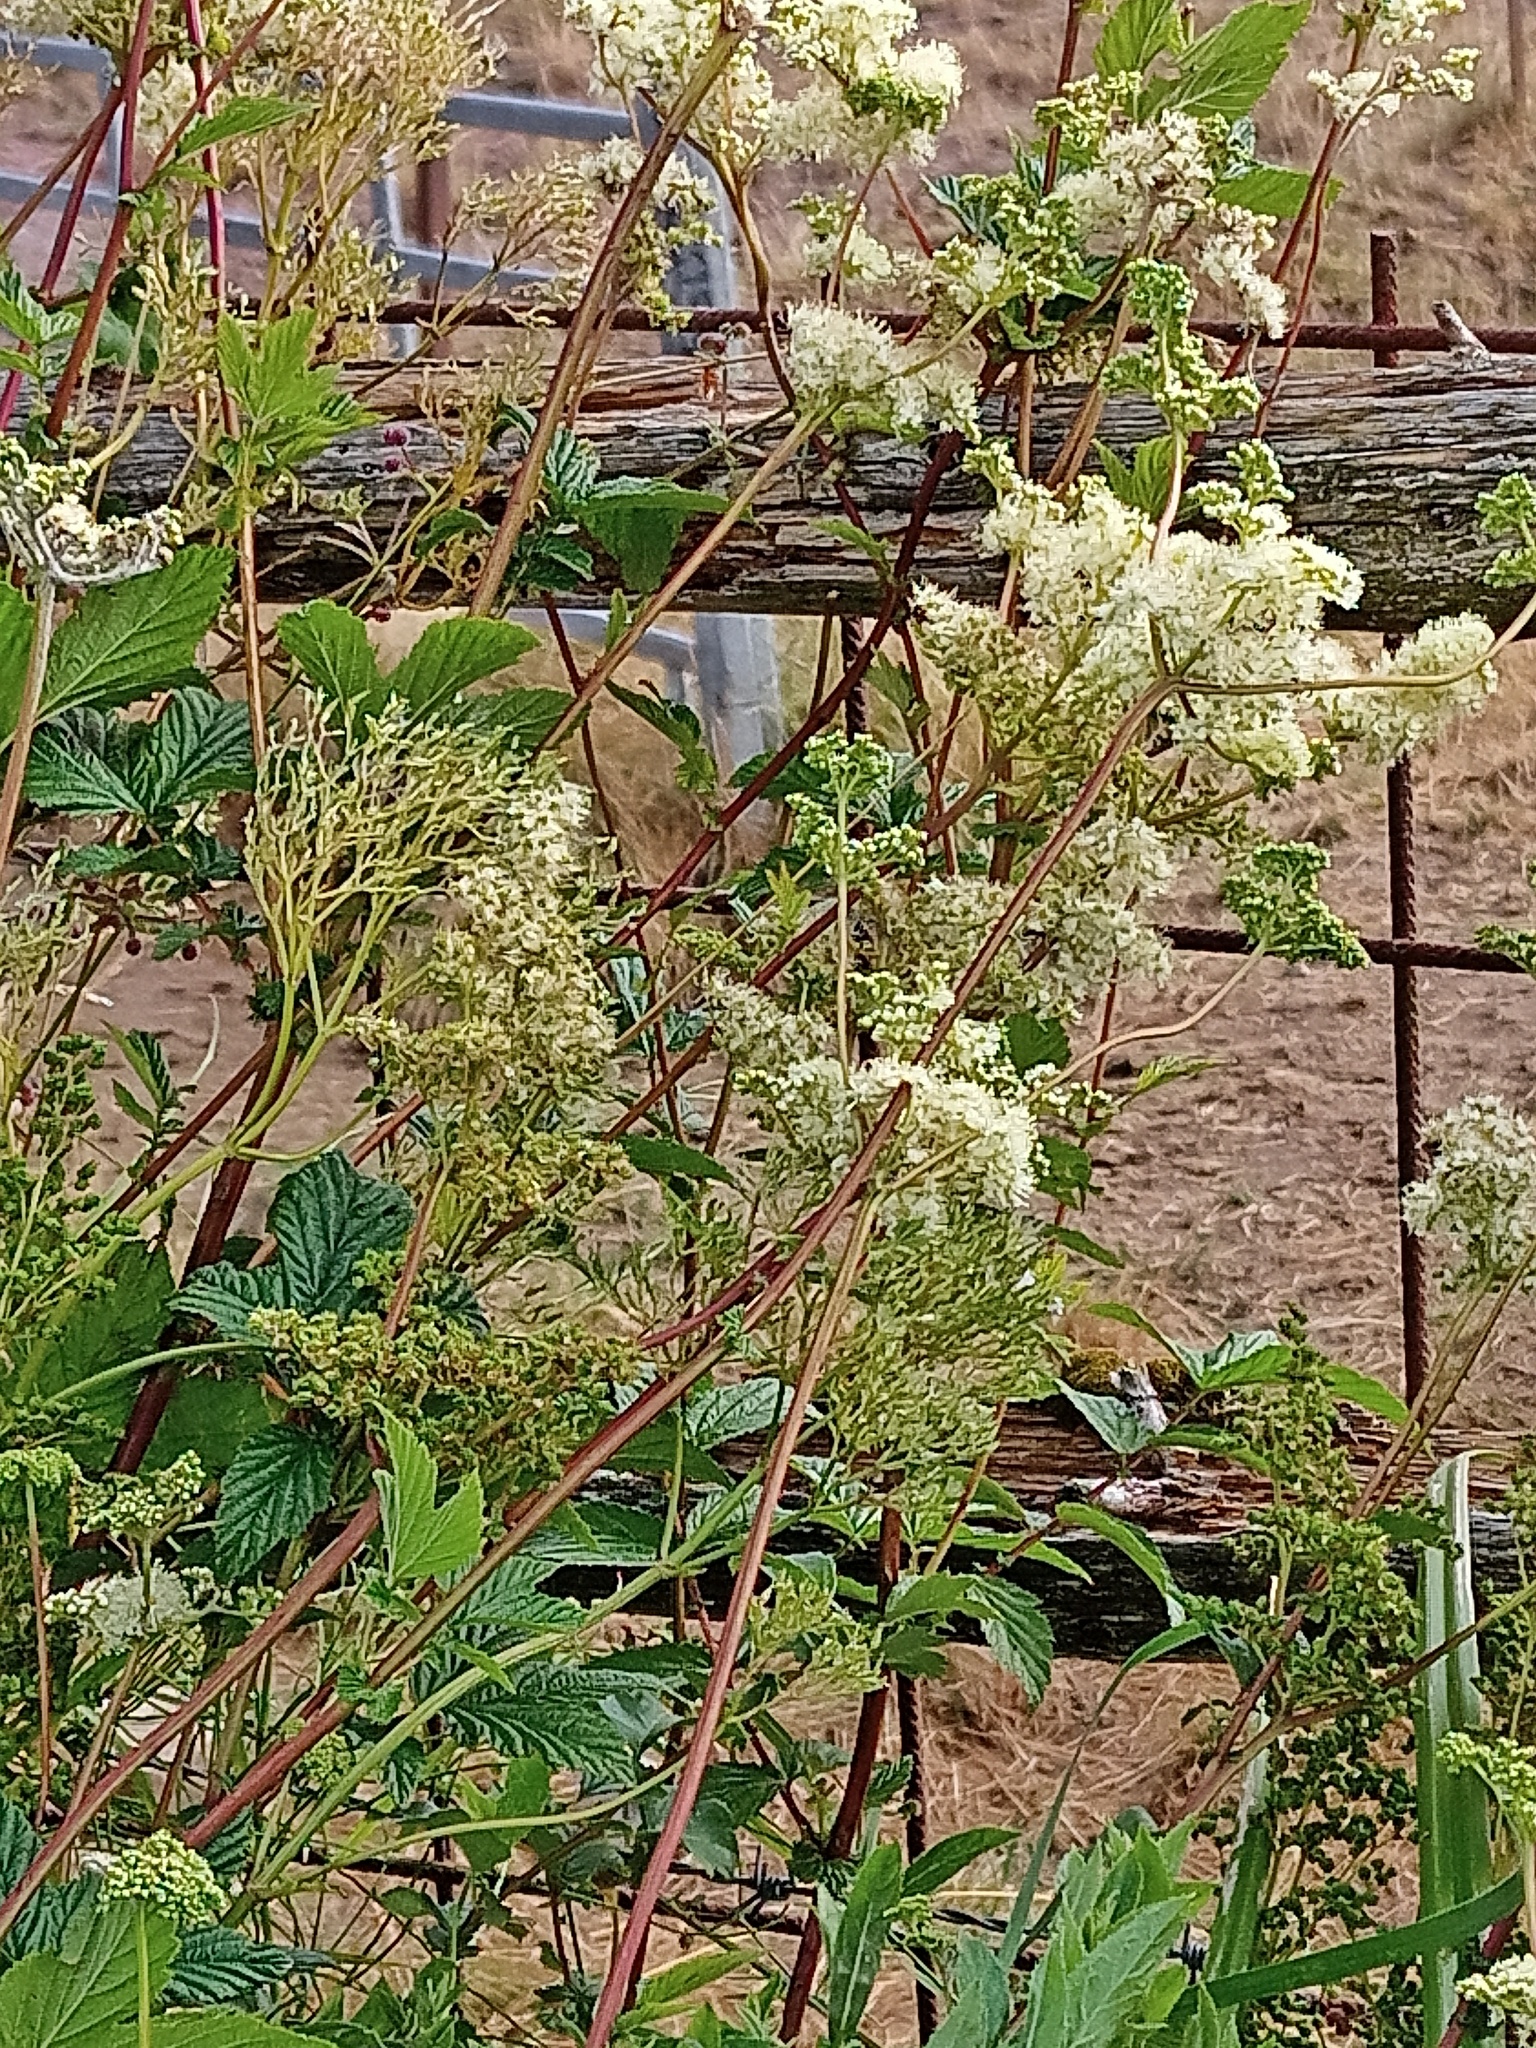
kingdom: Plantae
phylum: Tracheophyta
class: Magnoliopsida
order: Rosales
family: Rosaceae
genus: Filipendula
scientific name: Filipendula ulmaria
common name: Meadowsweet
